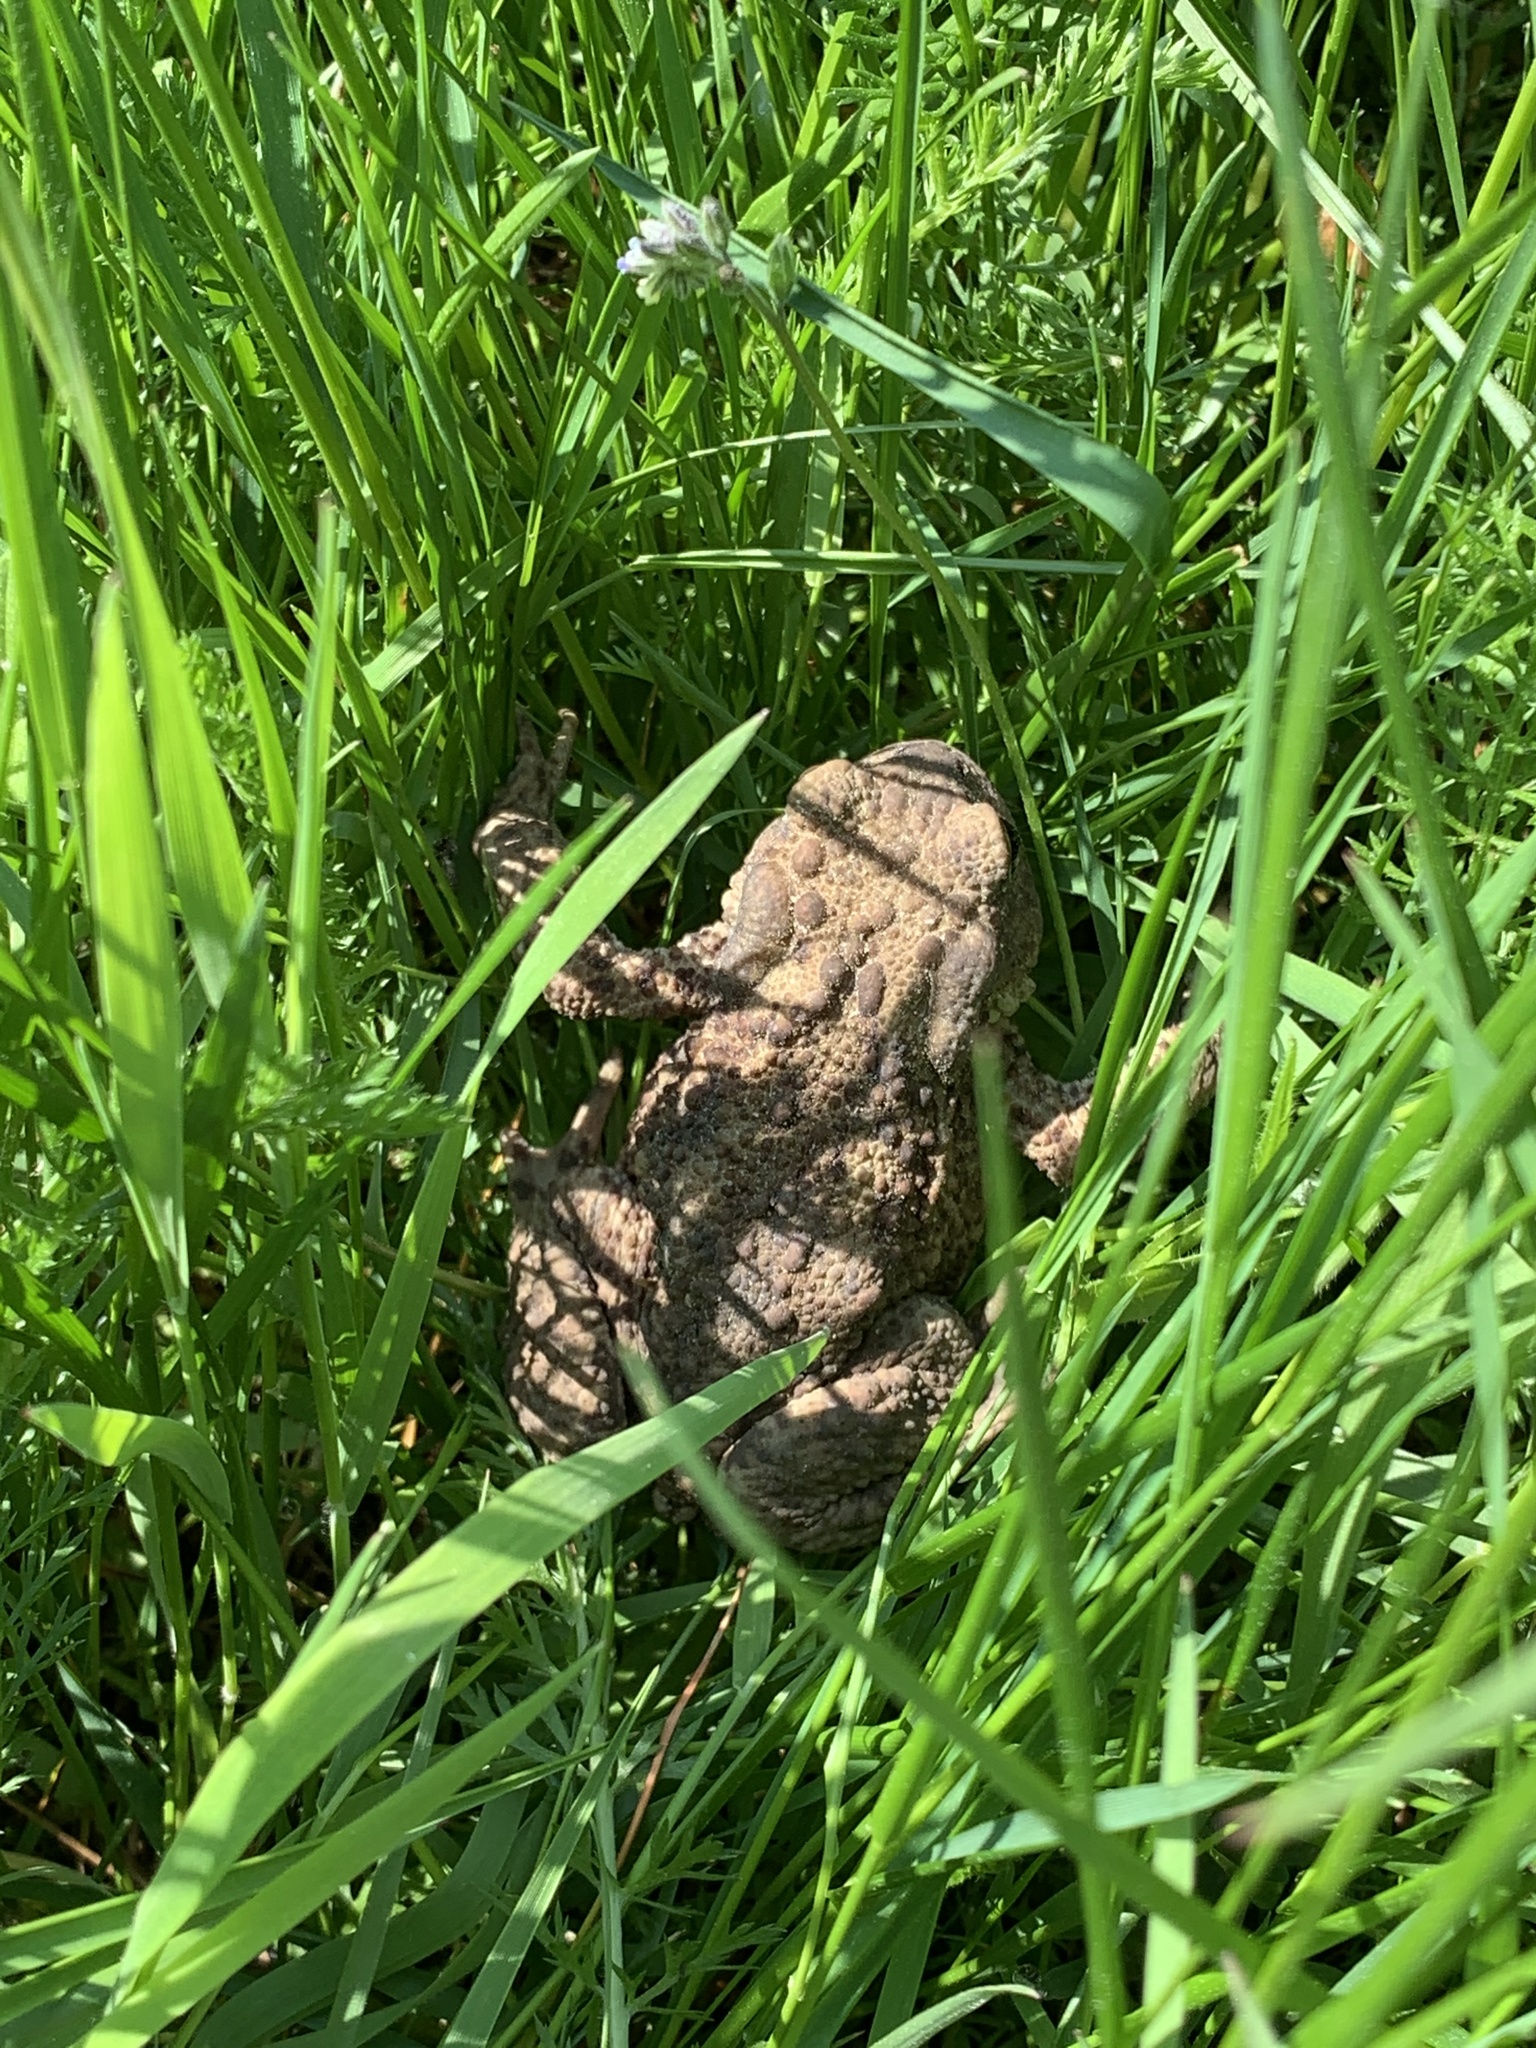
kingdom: Animalia
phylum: Chordata
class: Amphibia
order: Anura
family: Bufonidae
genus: Bufo
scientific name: Bufo bufo
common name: Common toad
